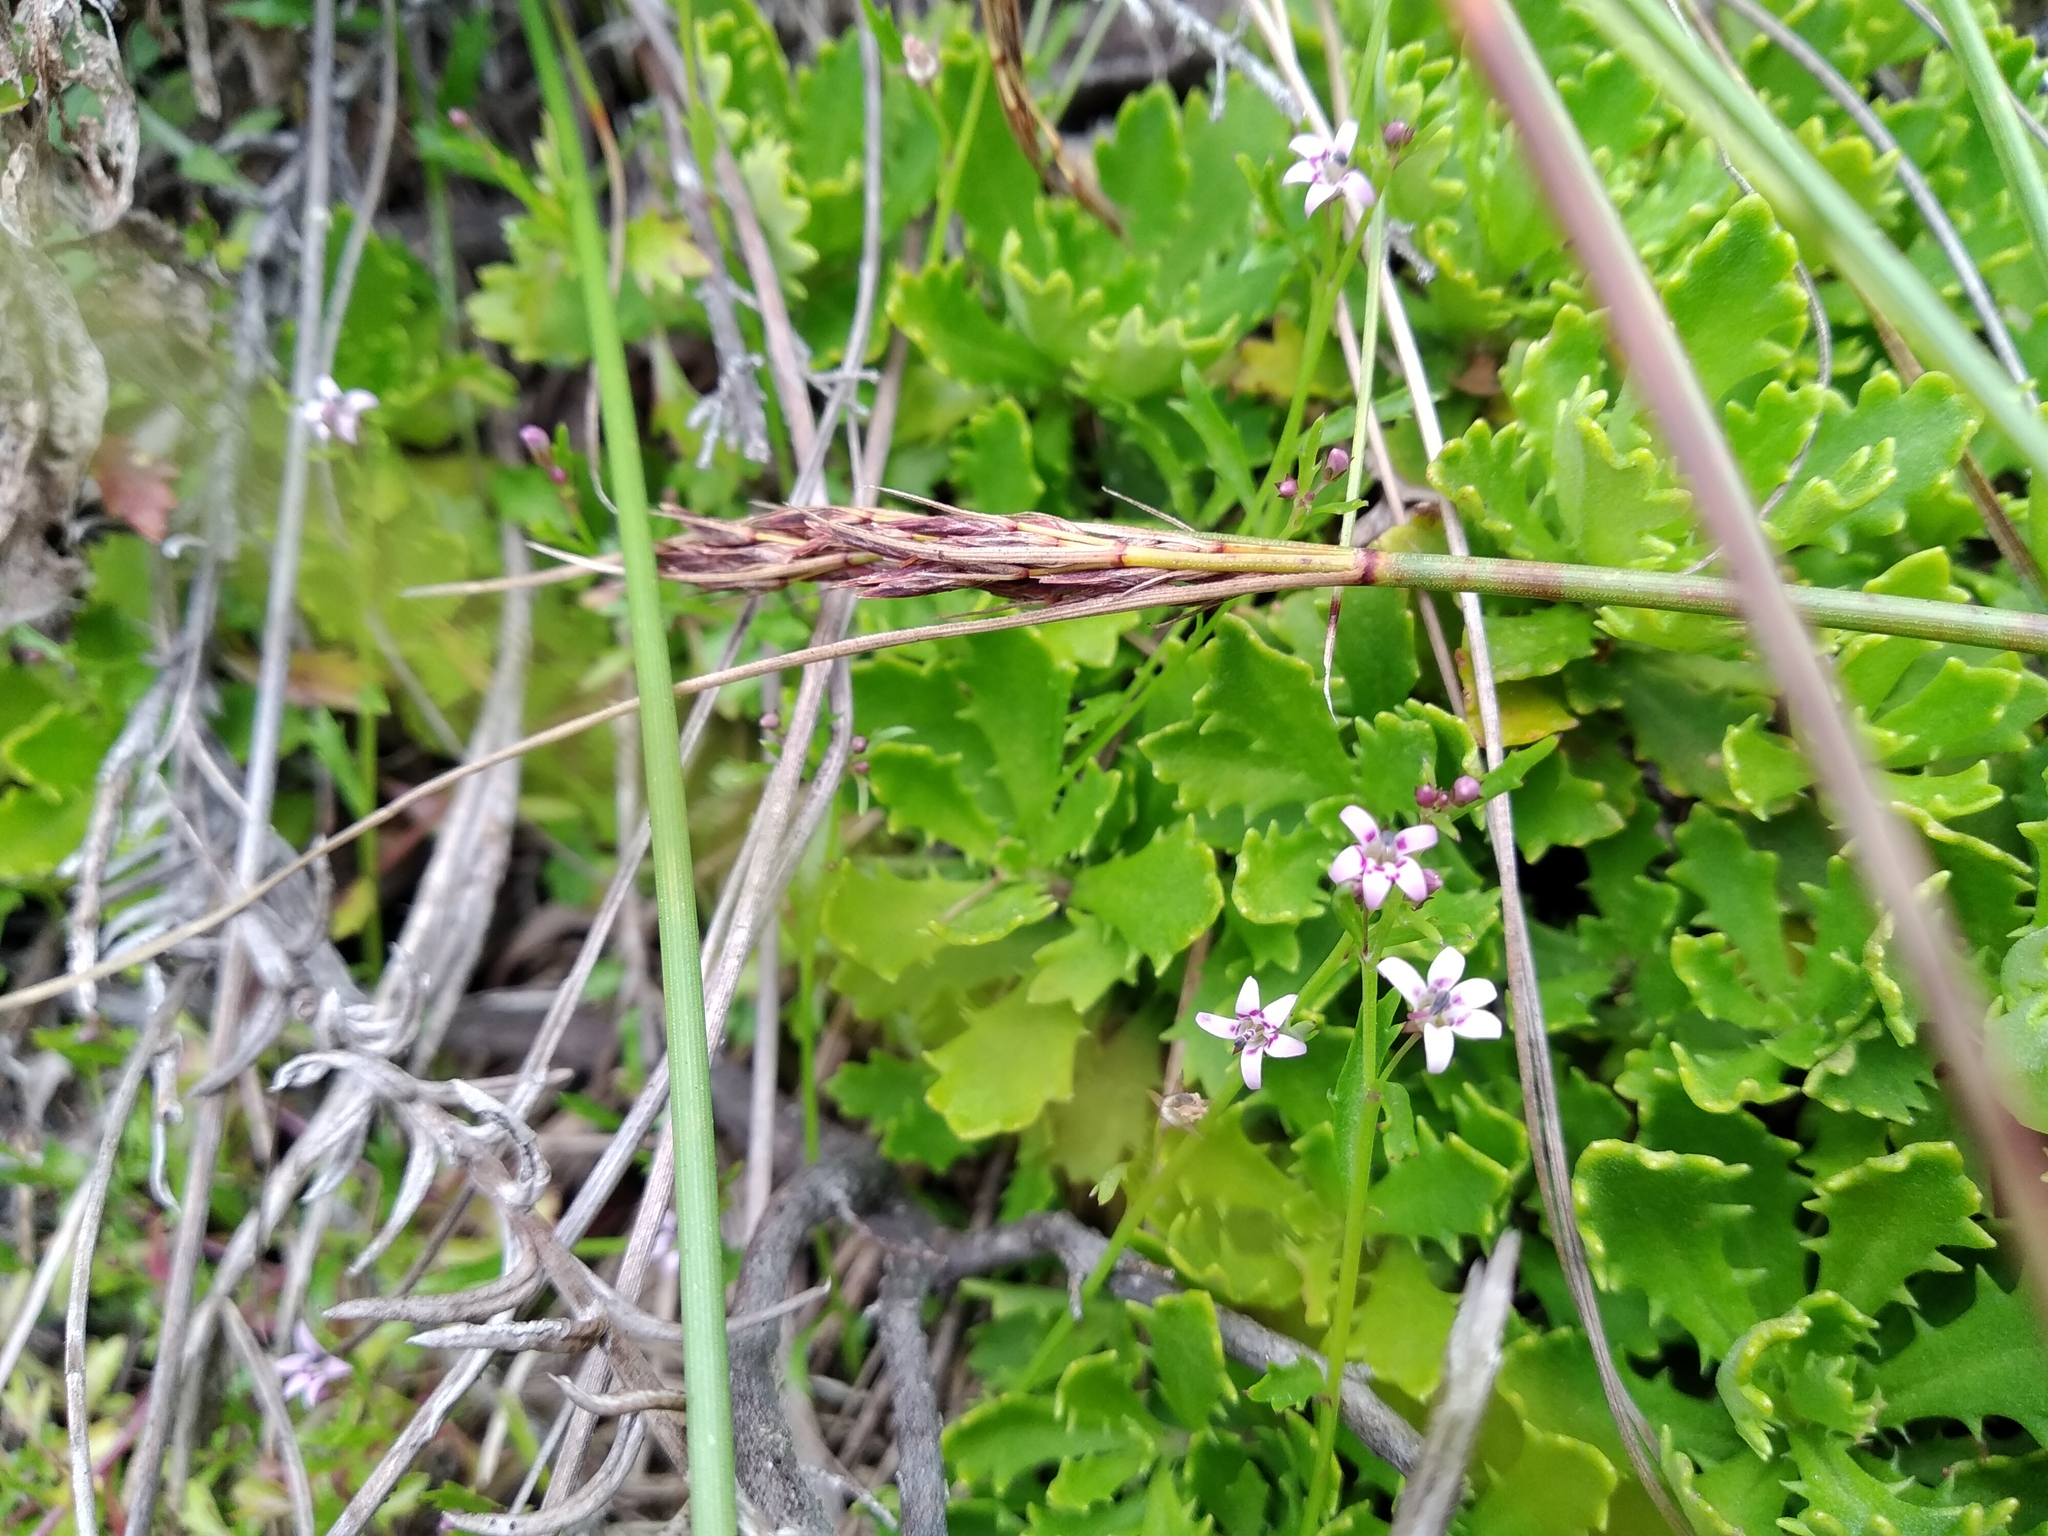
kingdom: Plantae
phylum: Tracheophyta
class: Magnoliopsida
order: Asterales
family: Campanulaceae
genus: Lobelia
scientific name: Lobelia eckloniana
